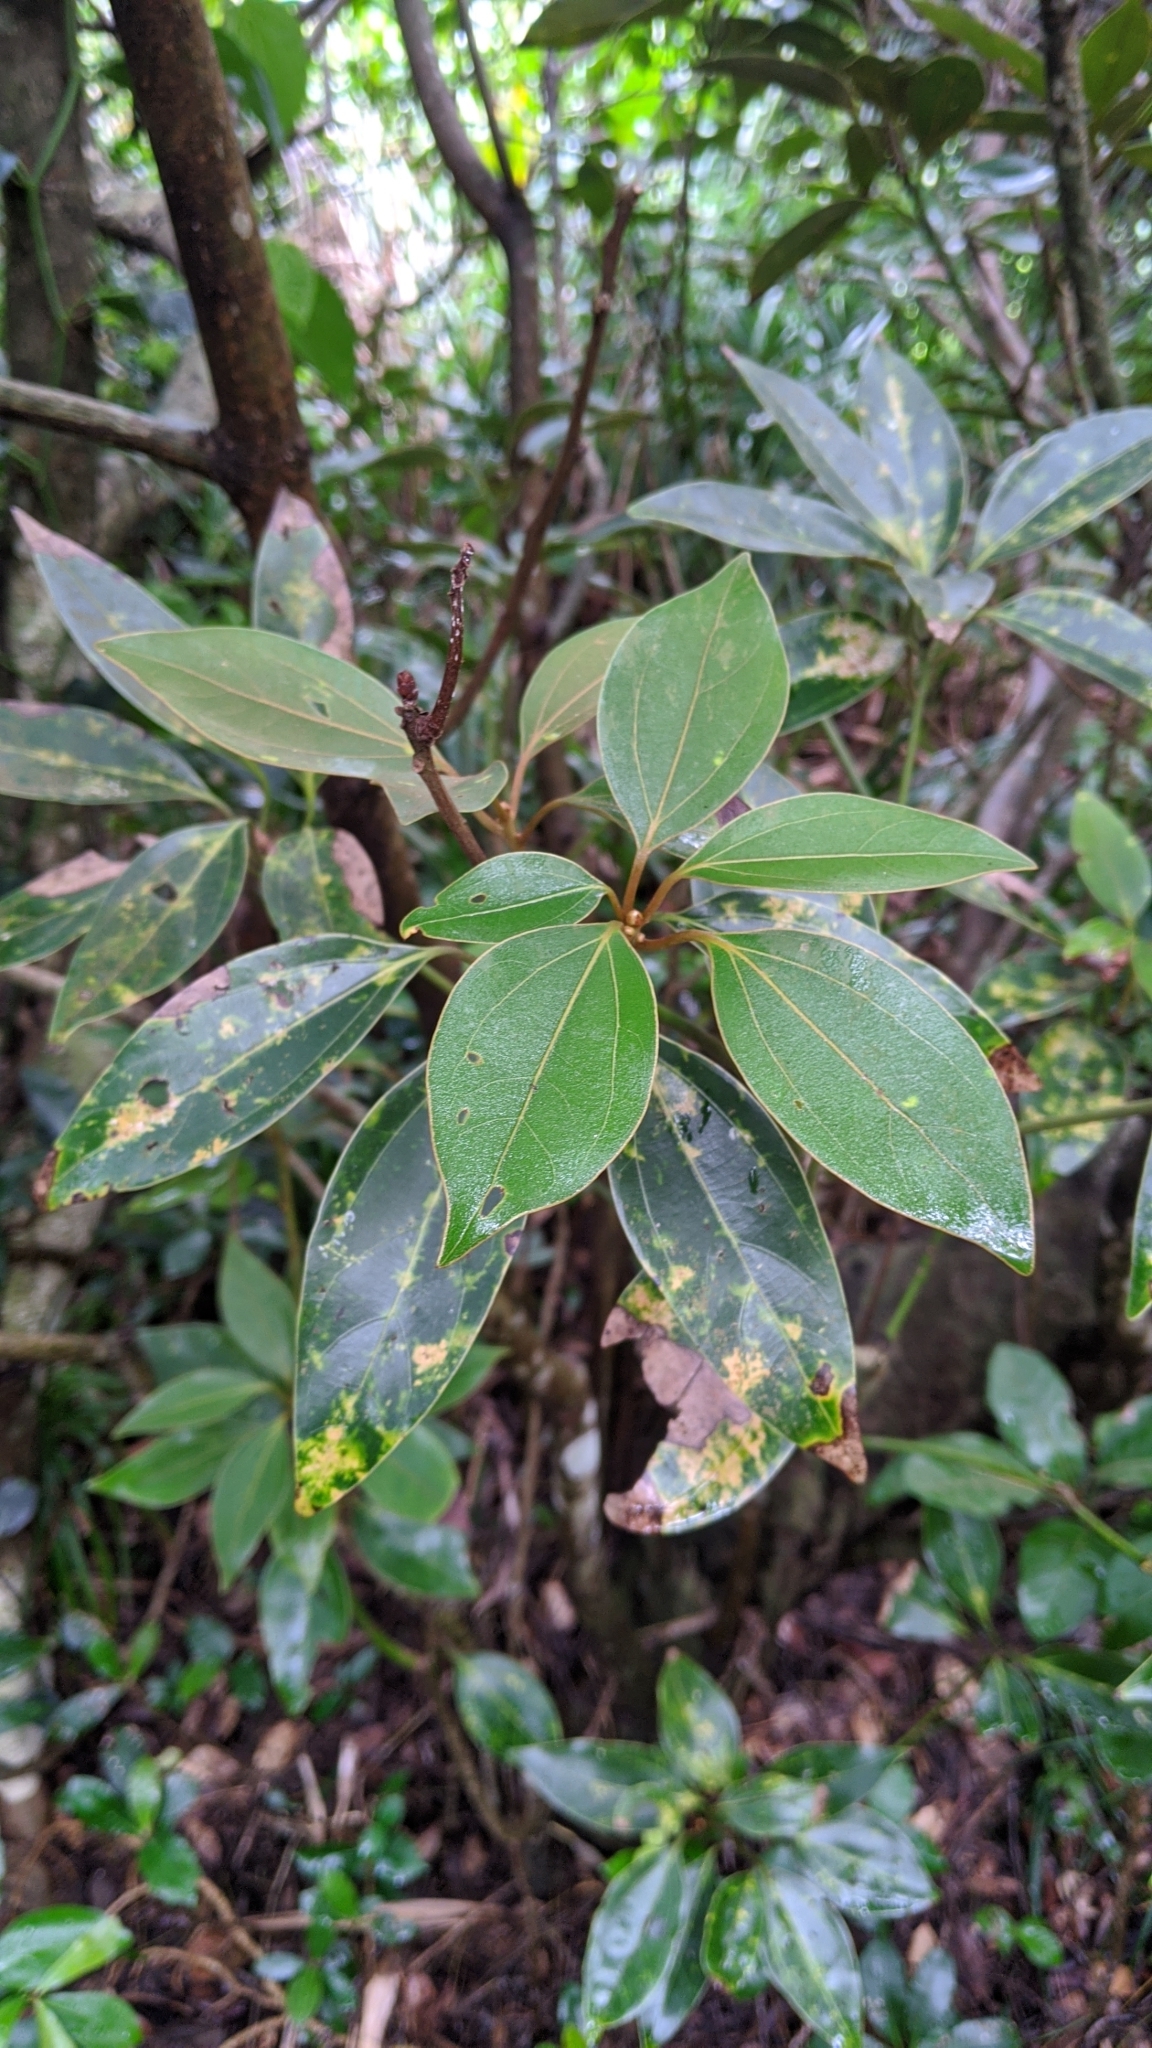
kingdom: Plantae
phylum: Tracheophyta
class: Magnoliopsida
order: Laurales
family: Lauraceae
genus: Neolitsea
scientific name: Neolitsea aurata
